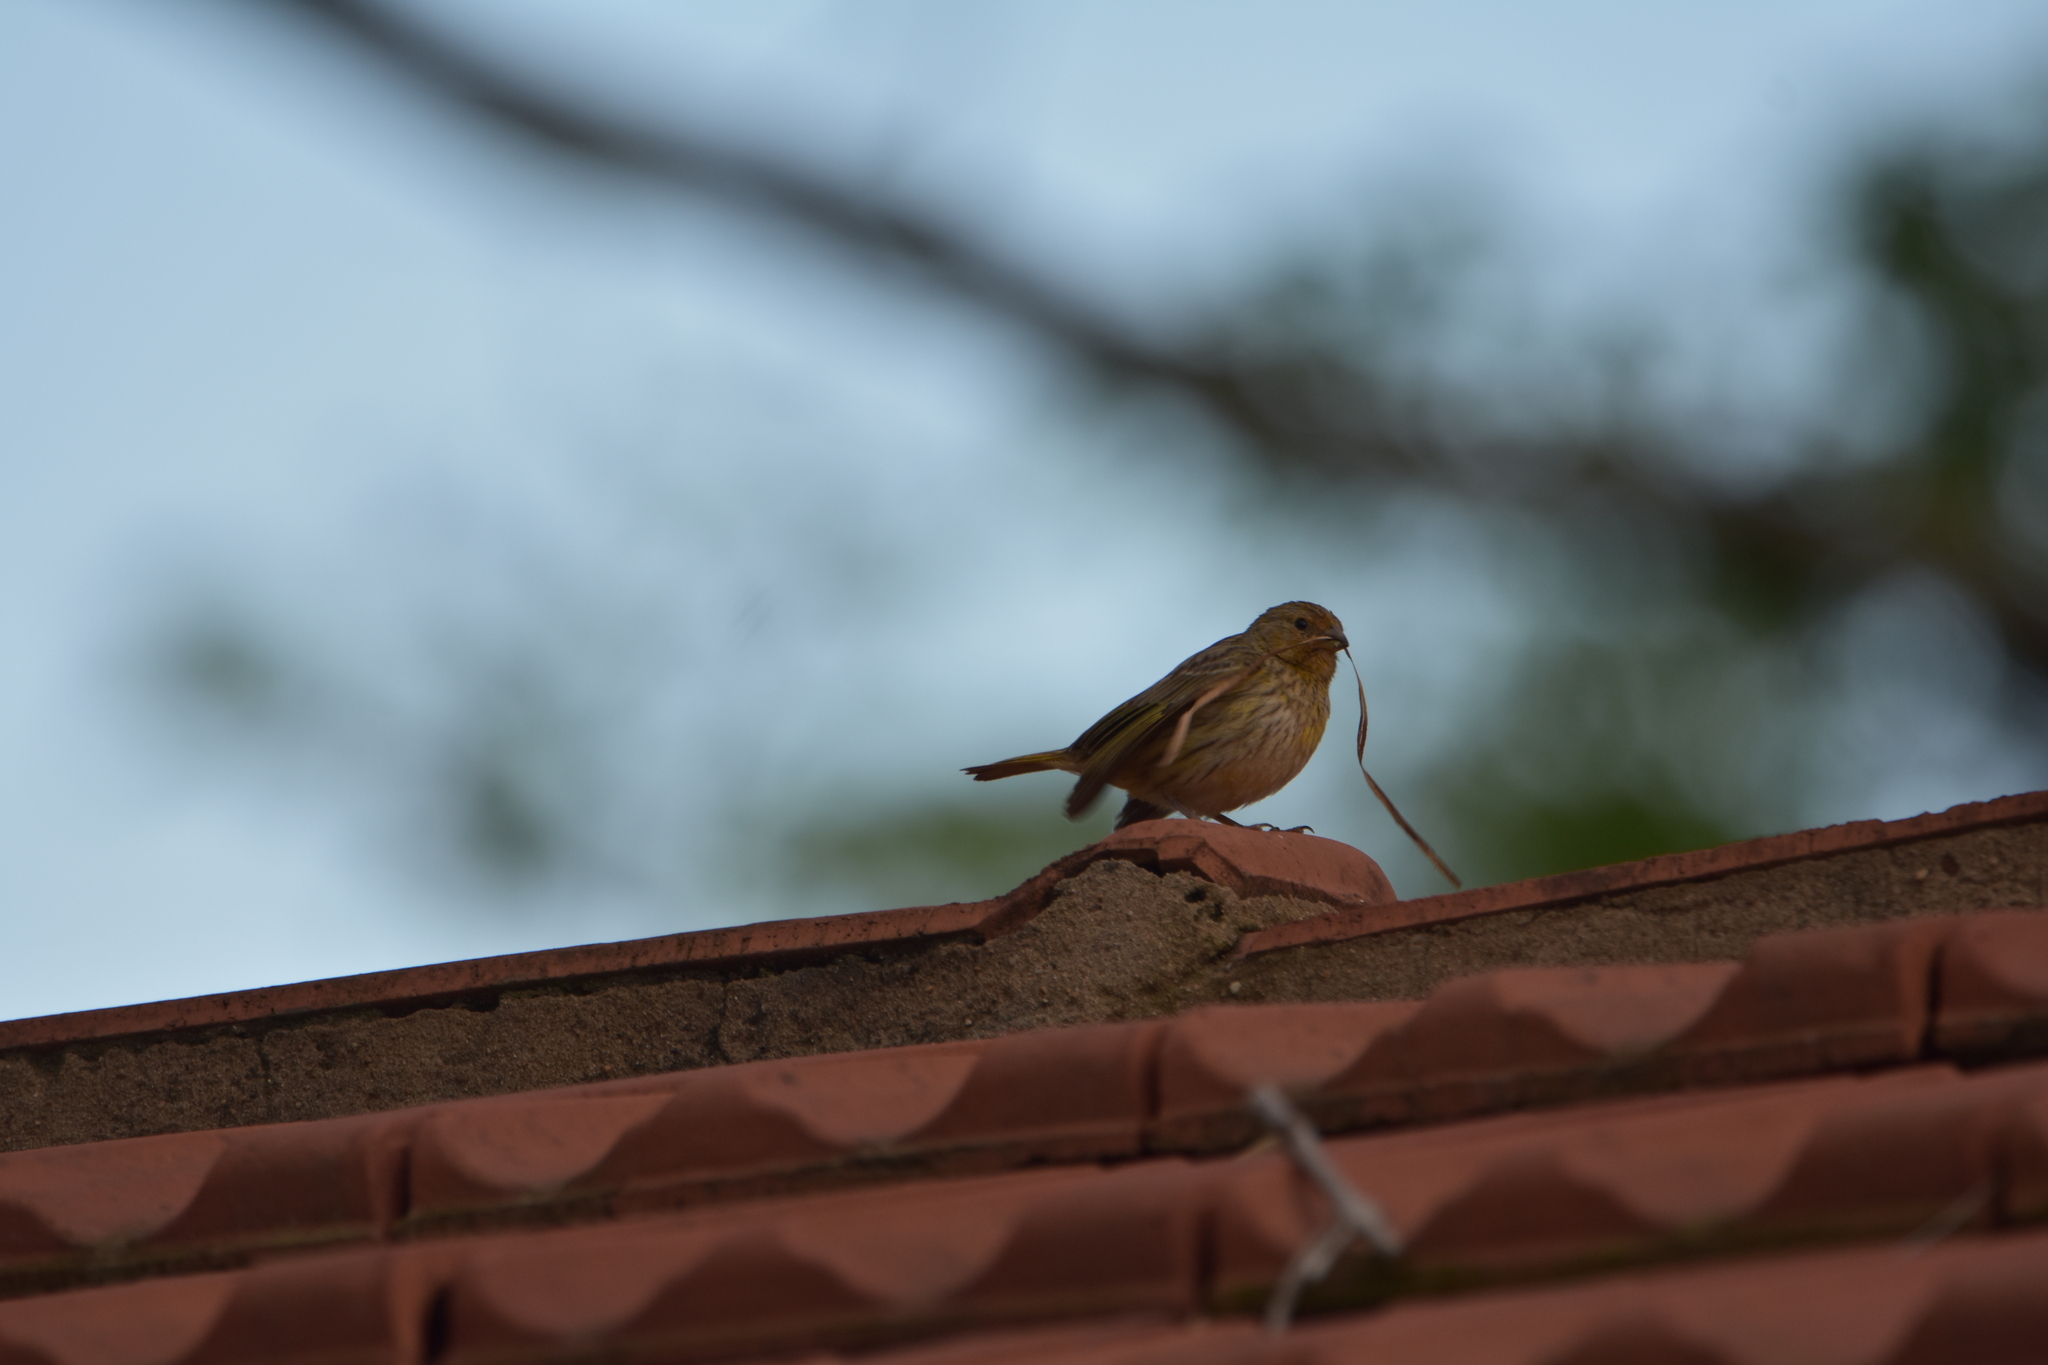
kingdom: Animalia
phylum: Chordata
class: Aves
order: Passeriformes
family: Thraupidae
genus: Sicalis
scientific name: Sicalis flaveola
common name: Saffron finch
